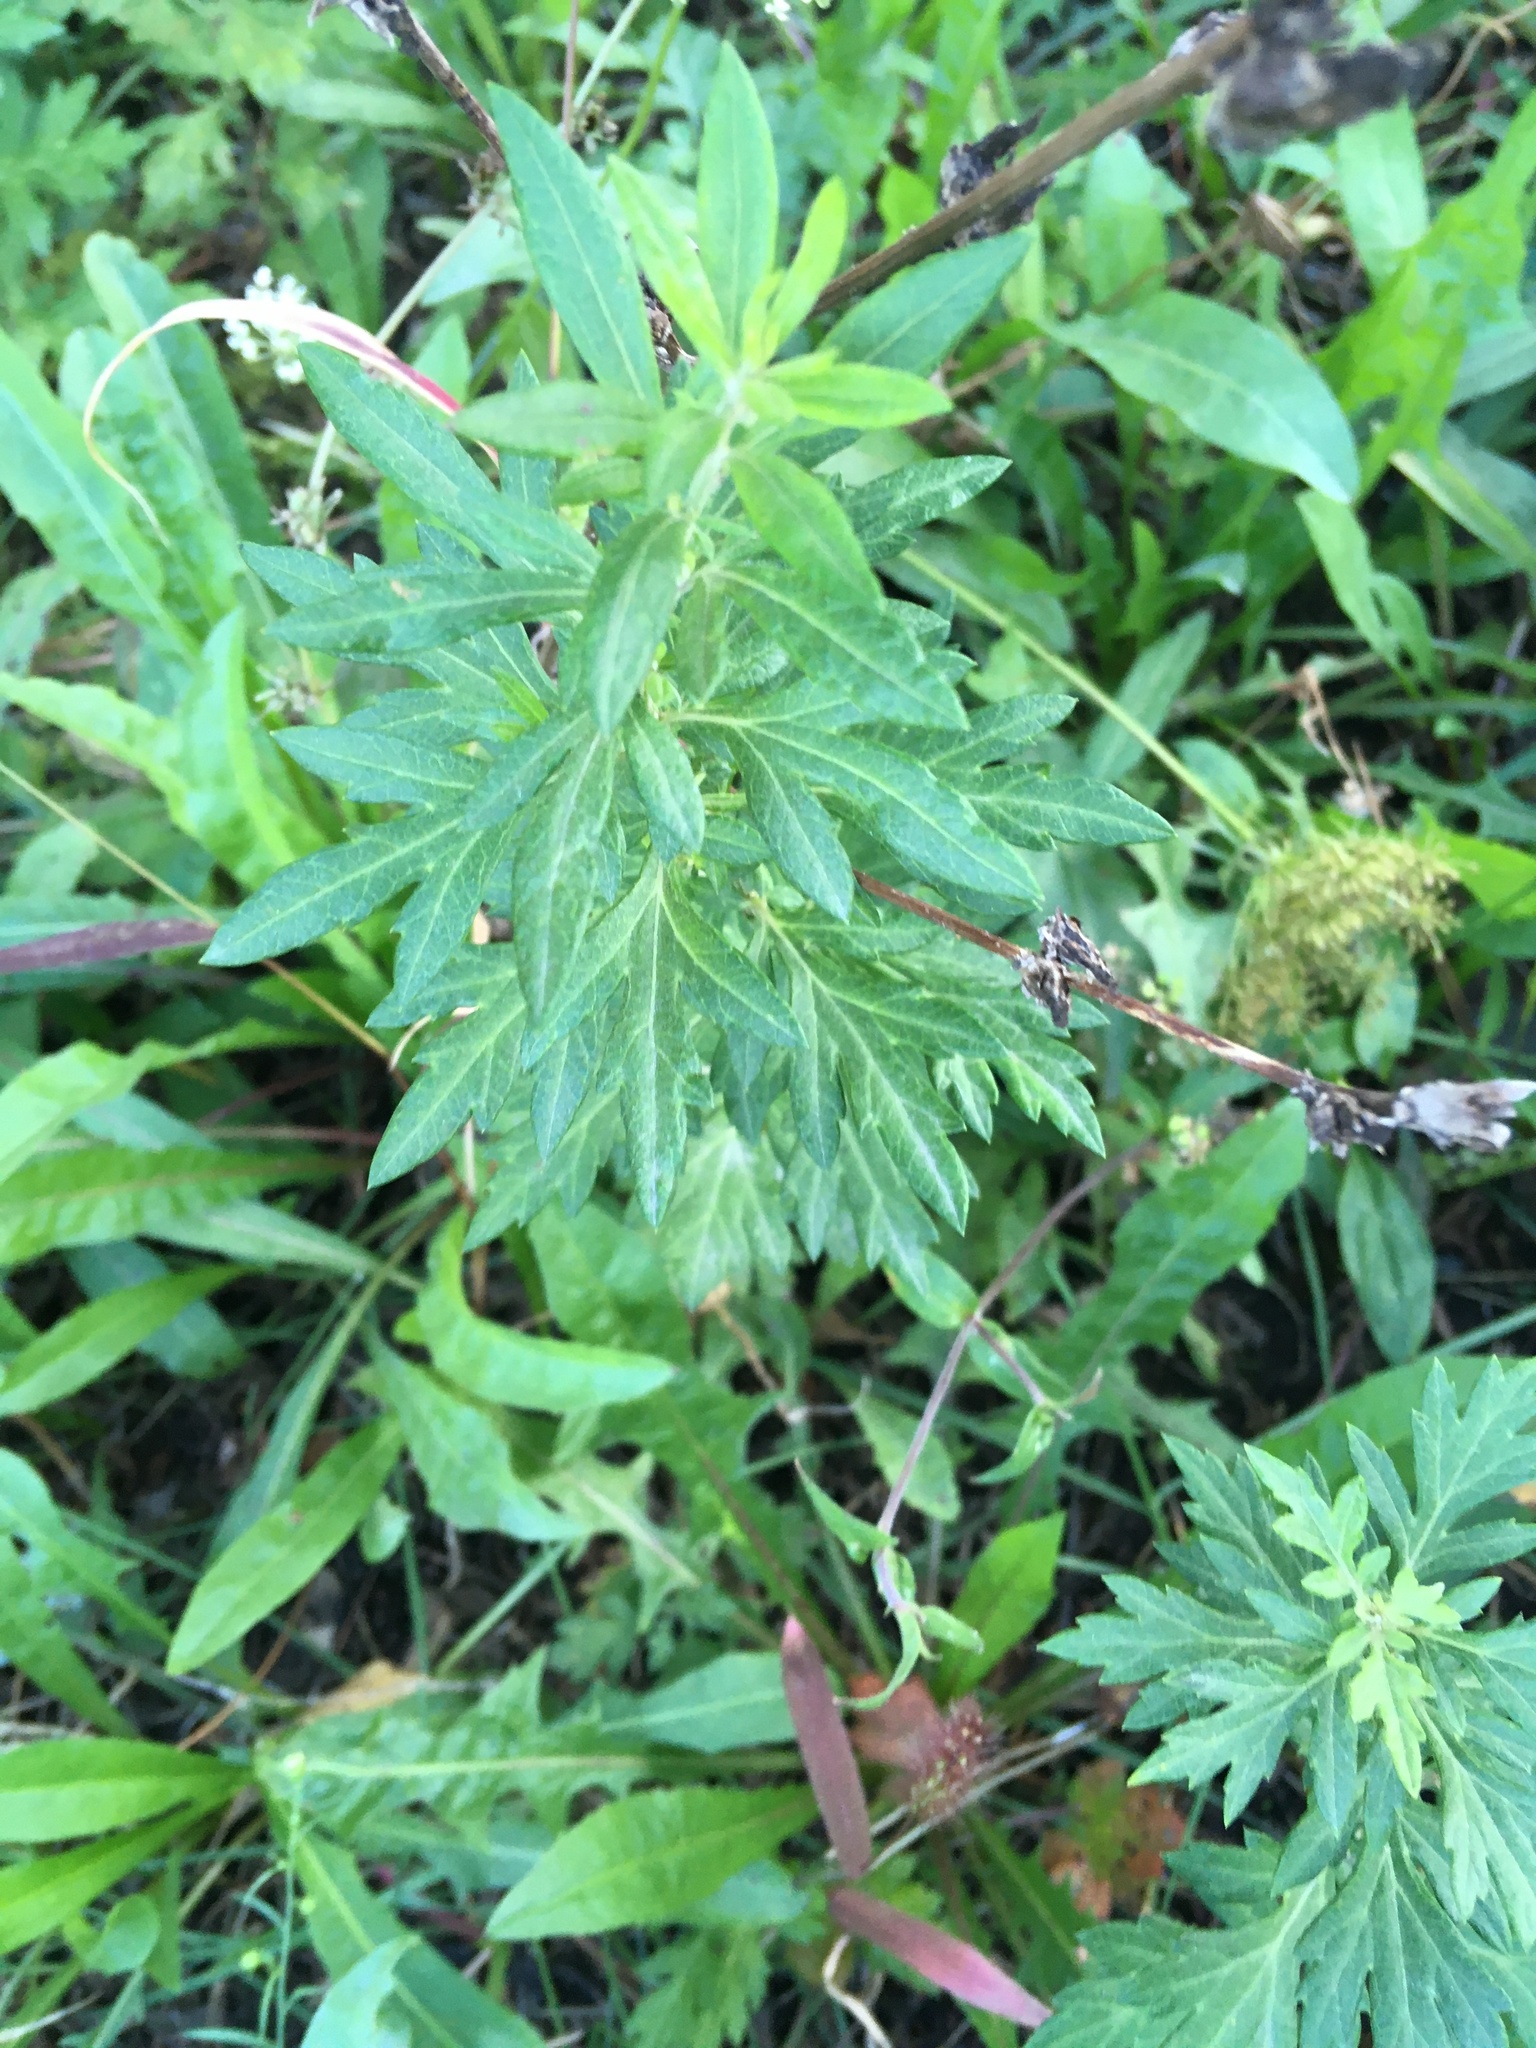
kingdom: Plantae
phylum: Tracheophyta
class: Magnoliopsida
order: Asterales
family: Asteraceae
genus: Artemisia
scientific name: Artemisia vulgaris
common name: Mugwort
